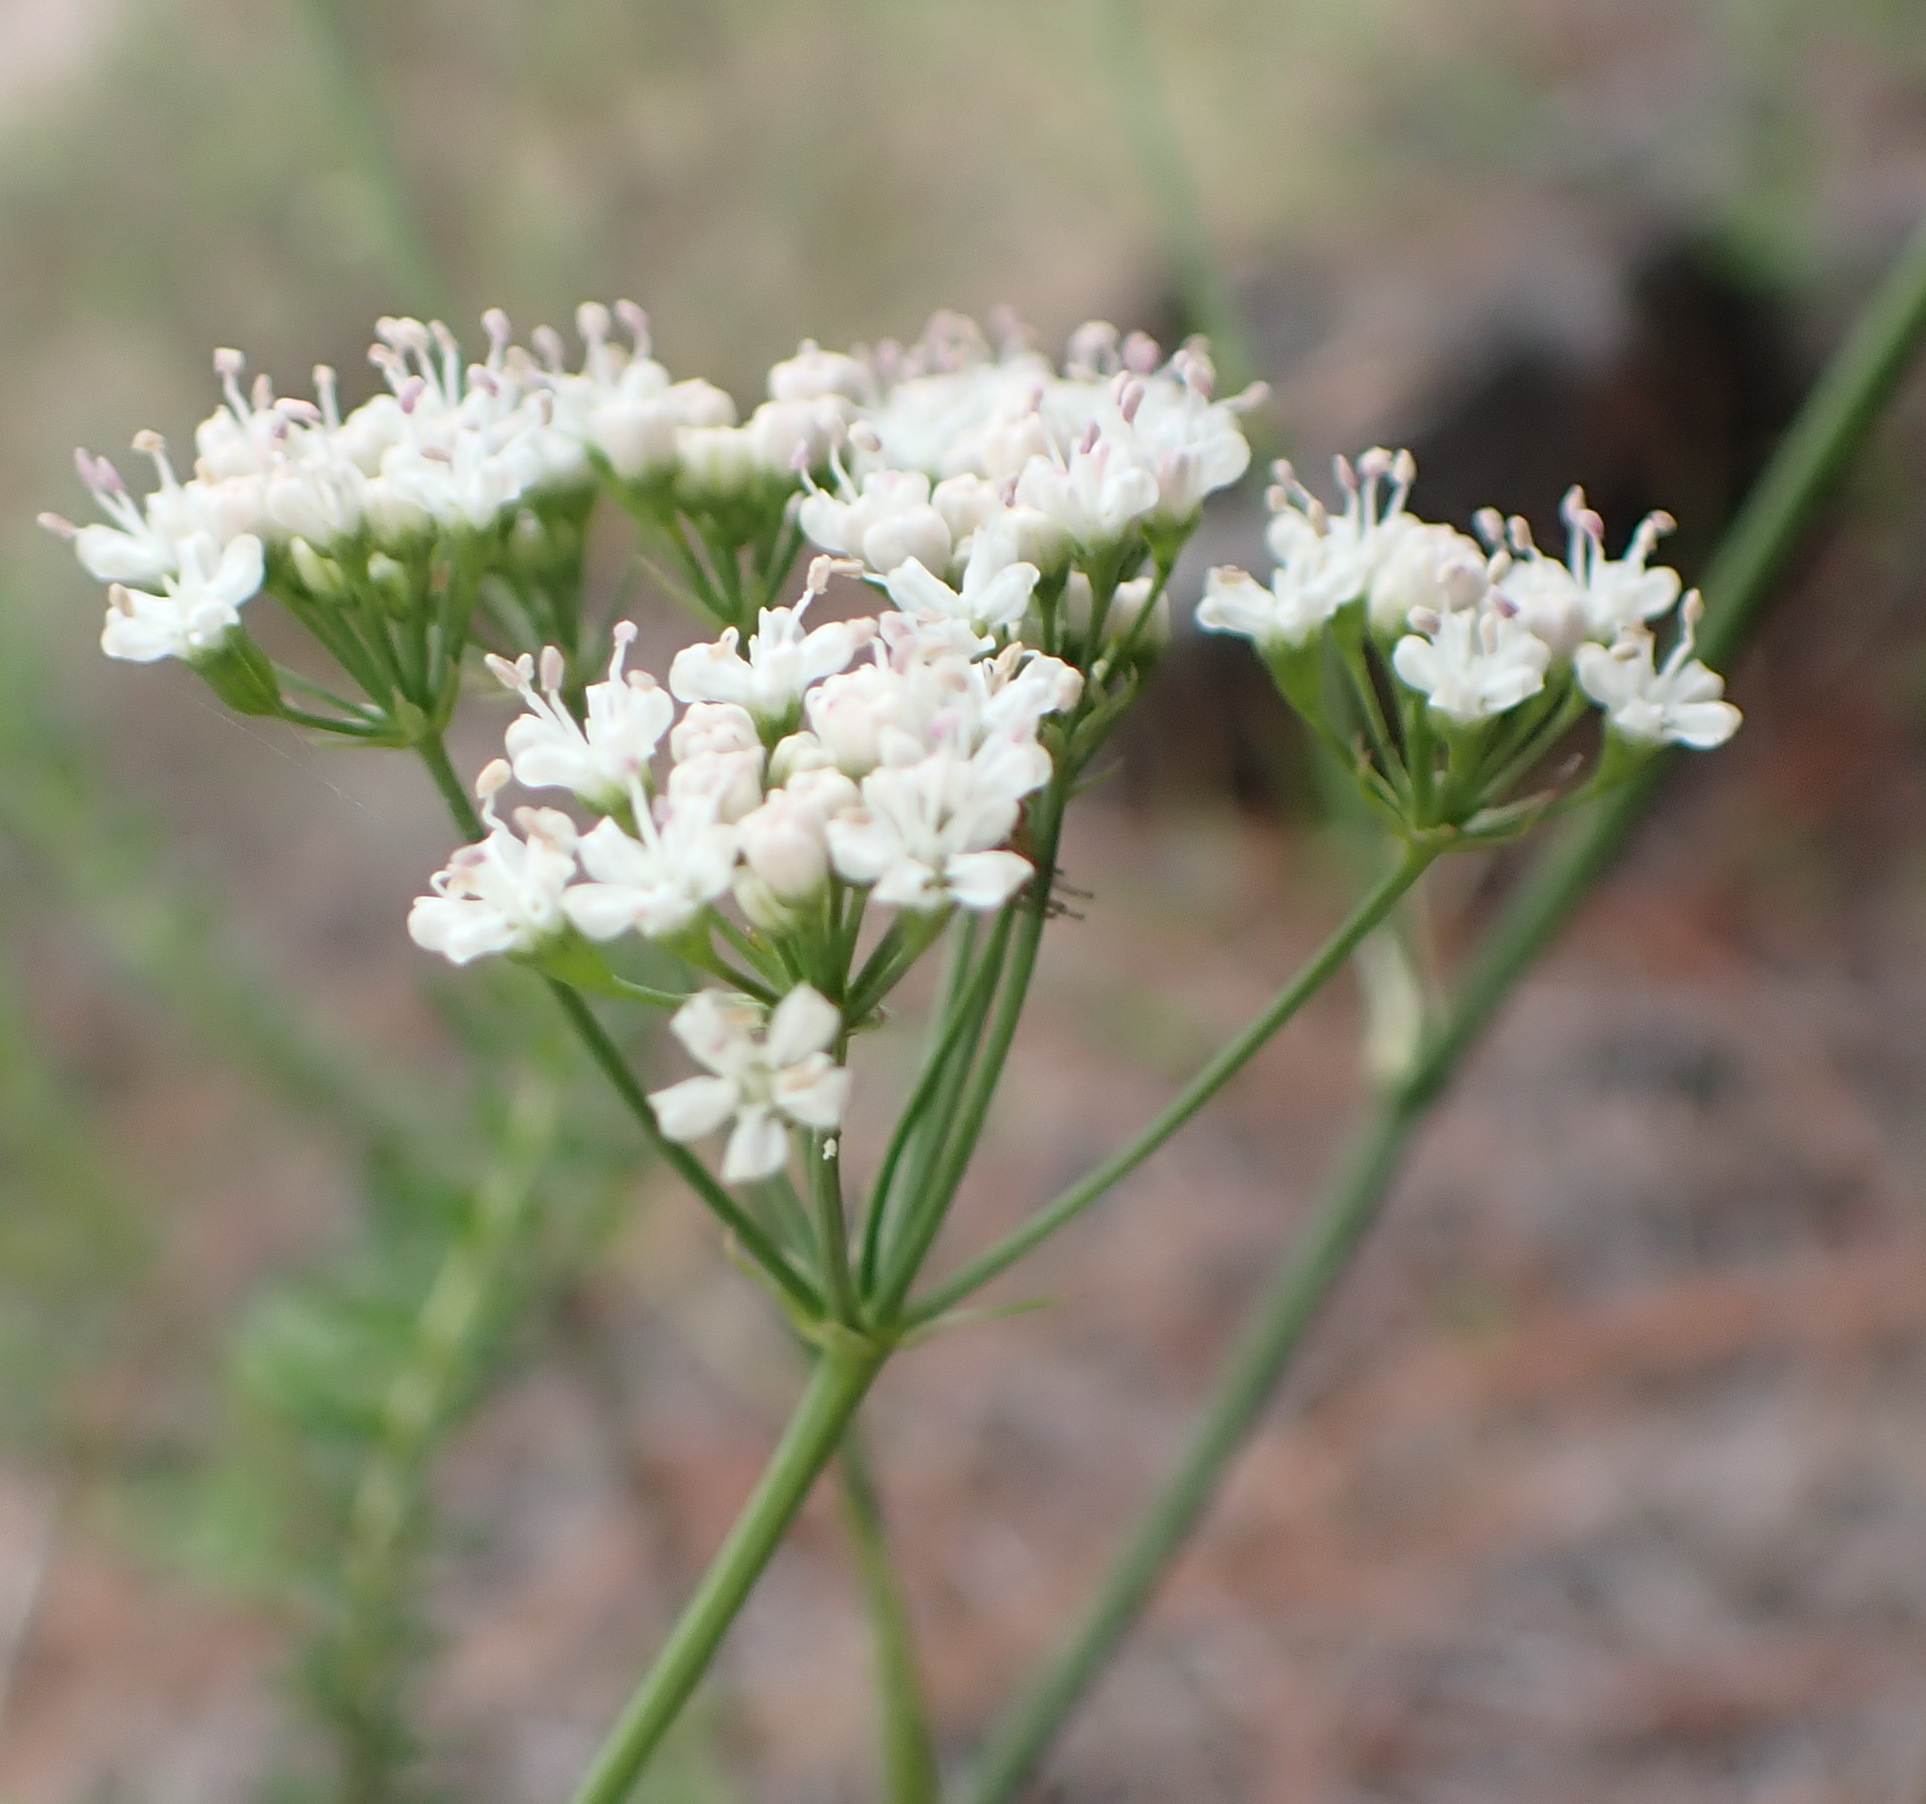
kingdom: Plantae
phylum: Tracheophyta
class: Magnoliopsida
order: Apiales
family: Apiaceae
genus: Lichtensteinia
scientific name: Lichtensteinia interrupta
